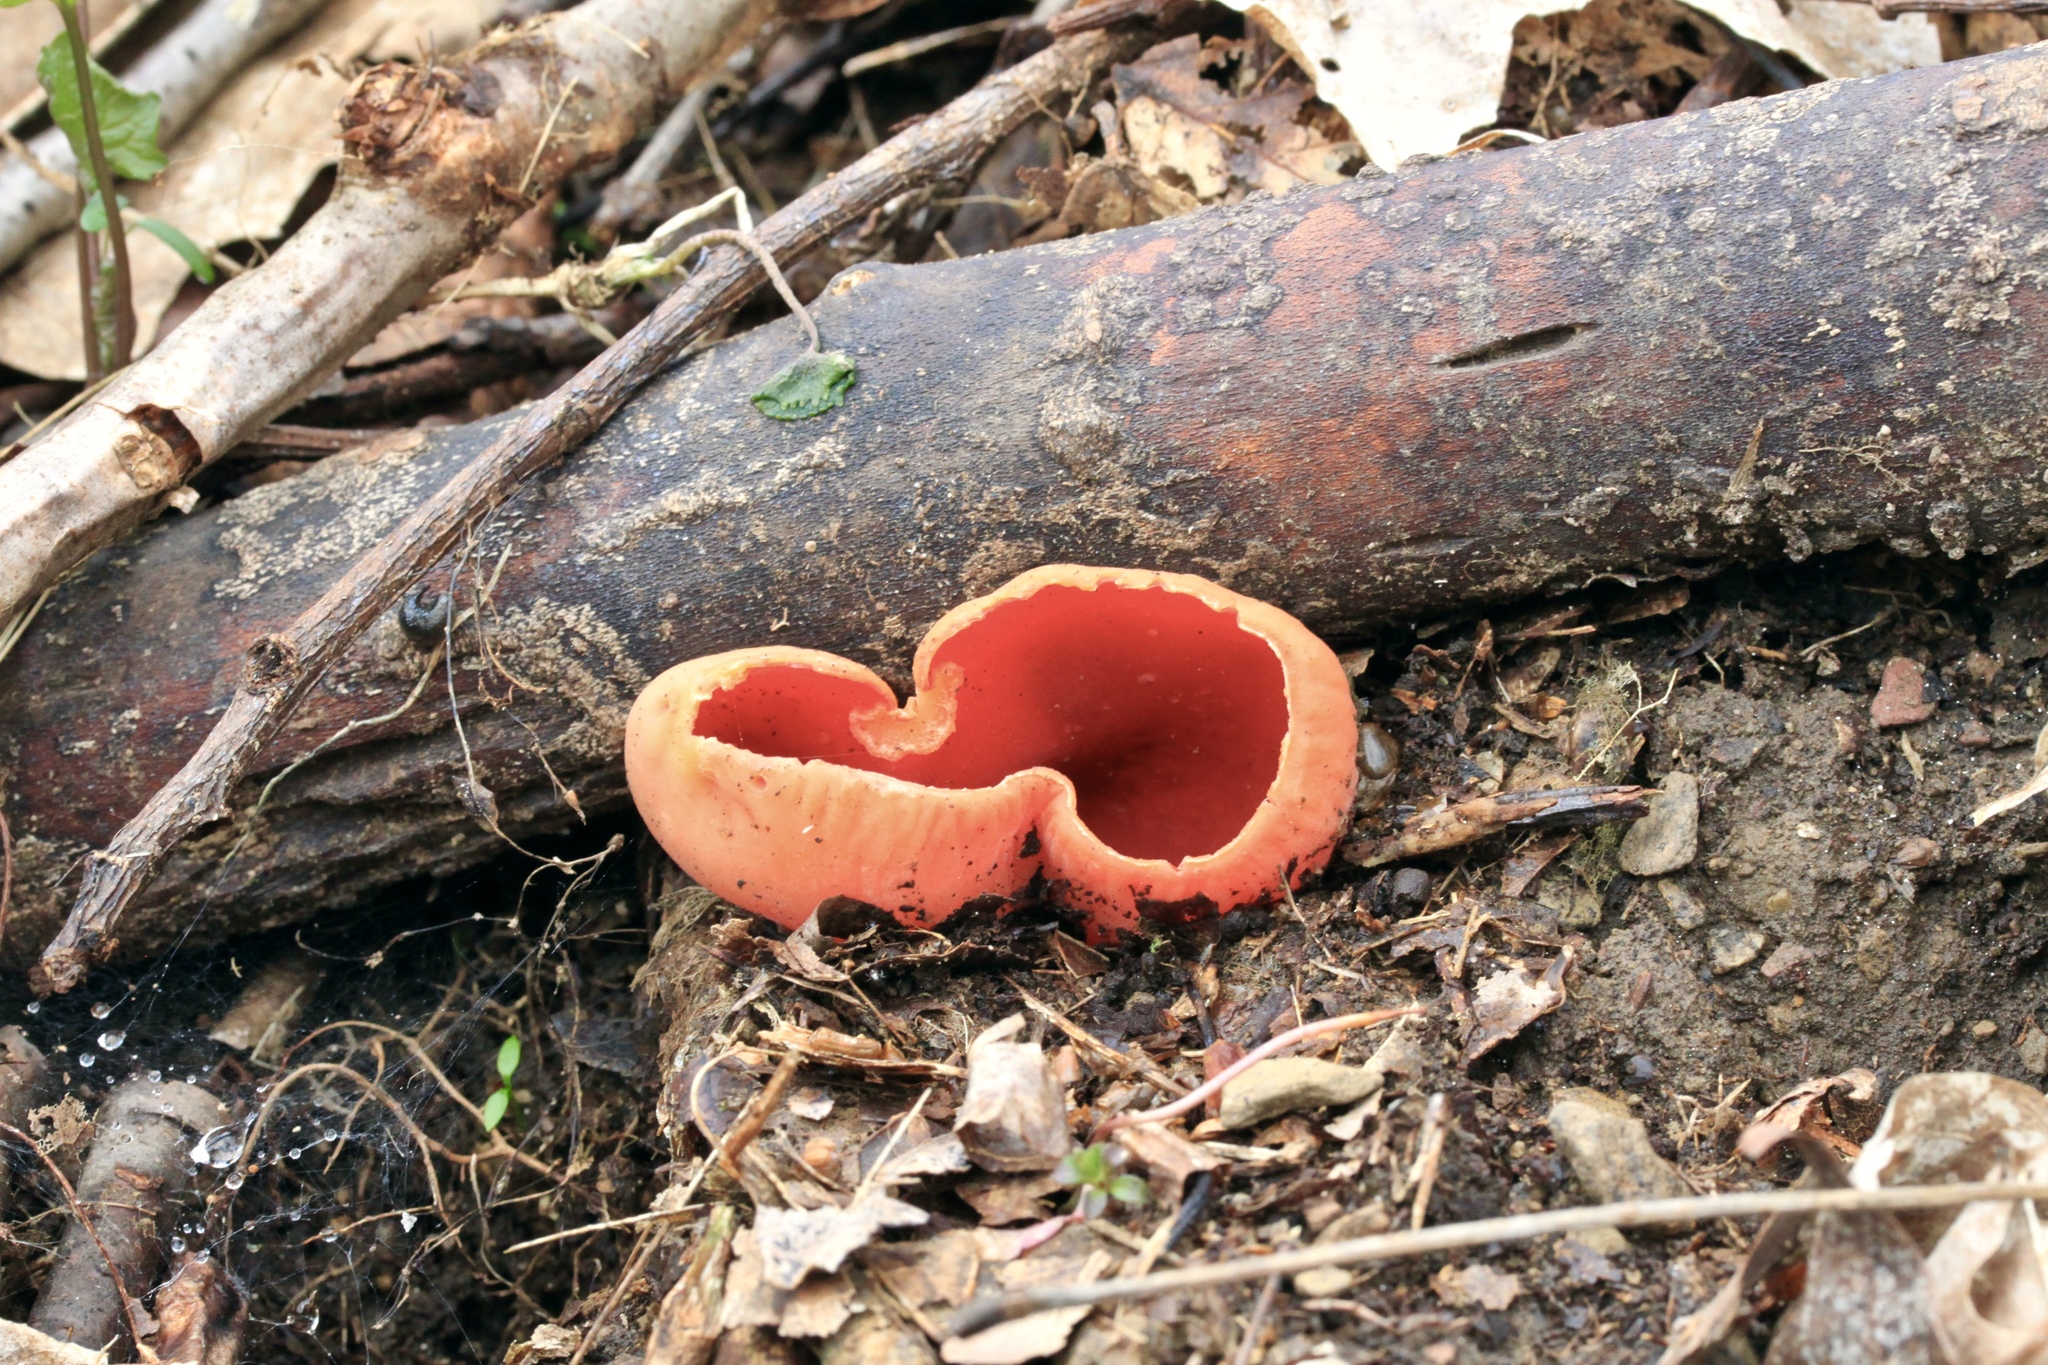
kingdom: Fungi
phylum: Ascomycota
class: Pezizomycetes
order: Pezizales
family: Sarcoscyphaceae
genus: Sarcoscypha
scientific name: Sarcoscypha austriaca
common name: Scarlet elfcup
